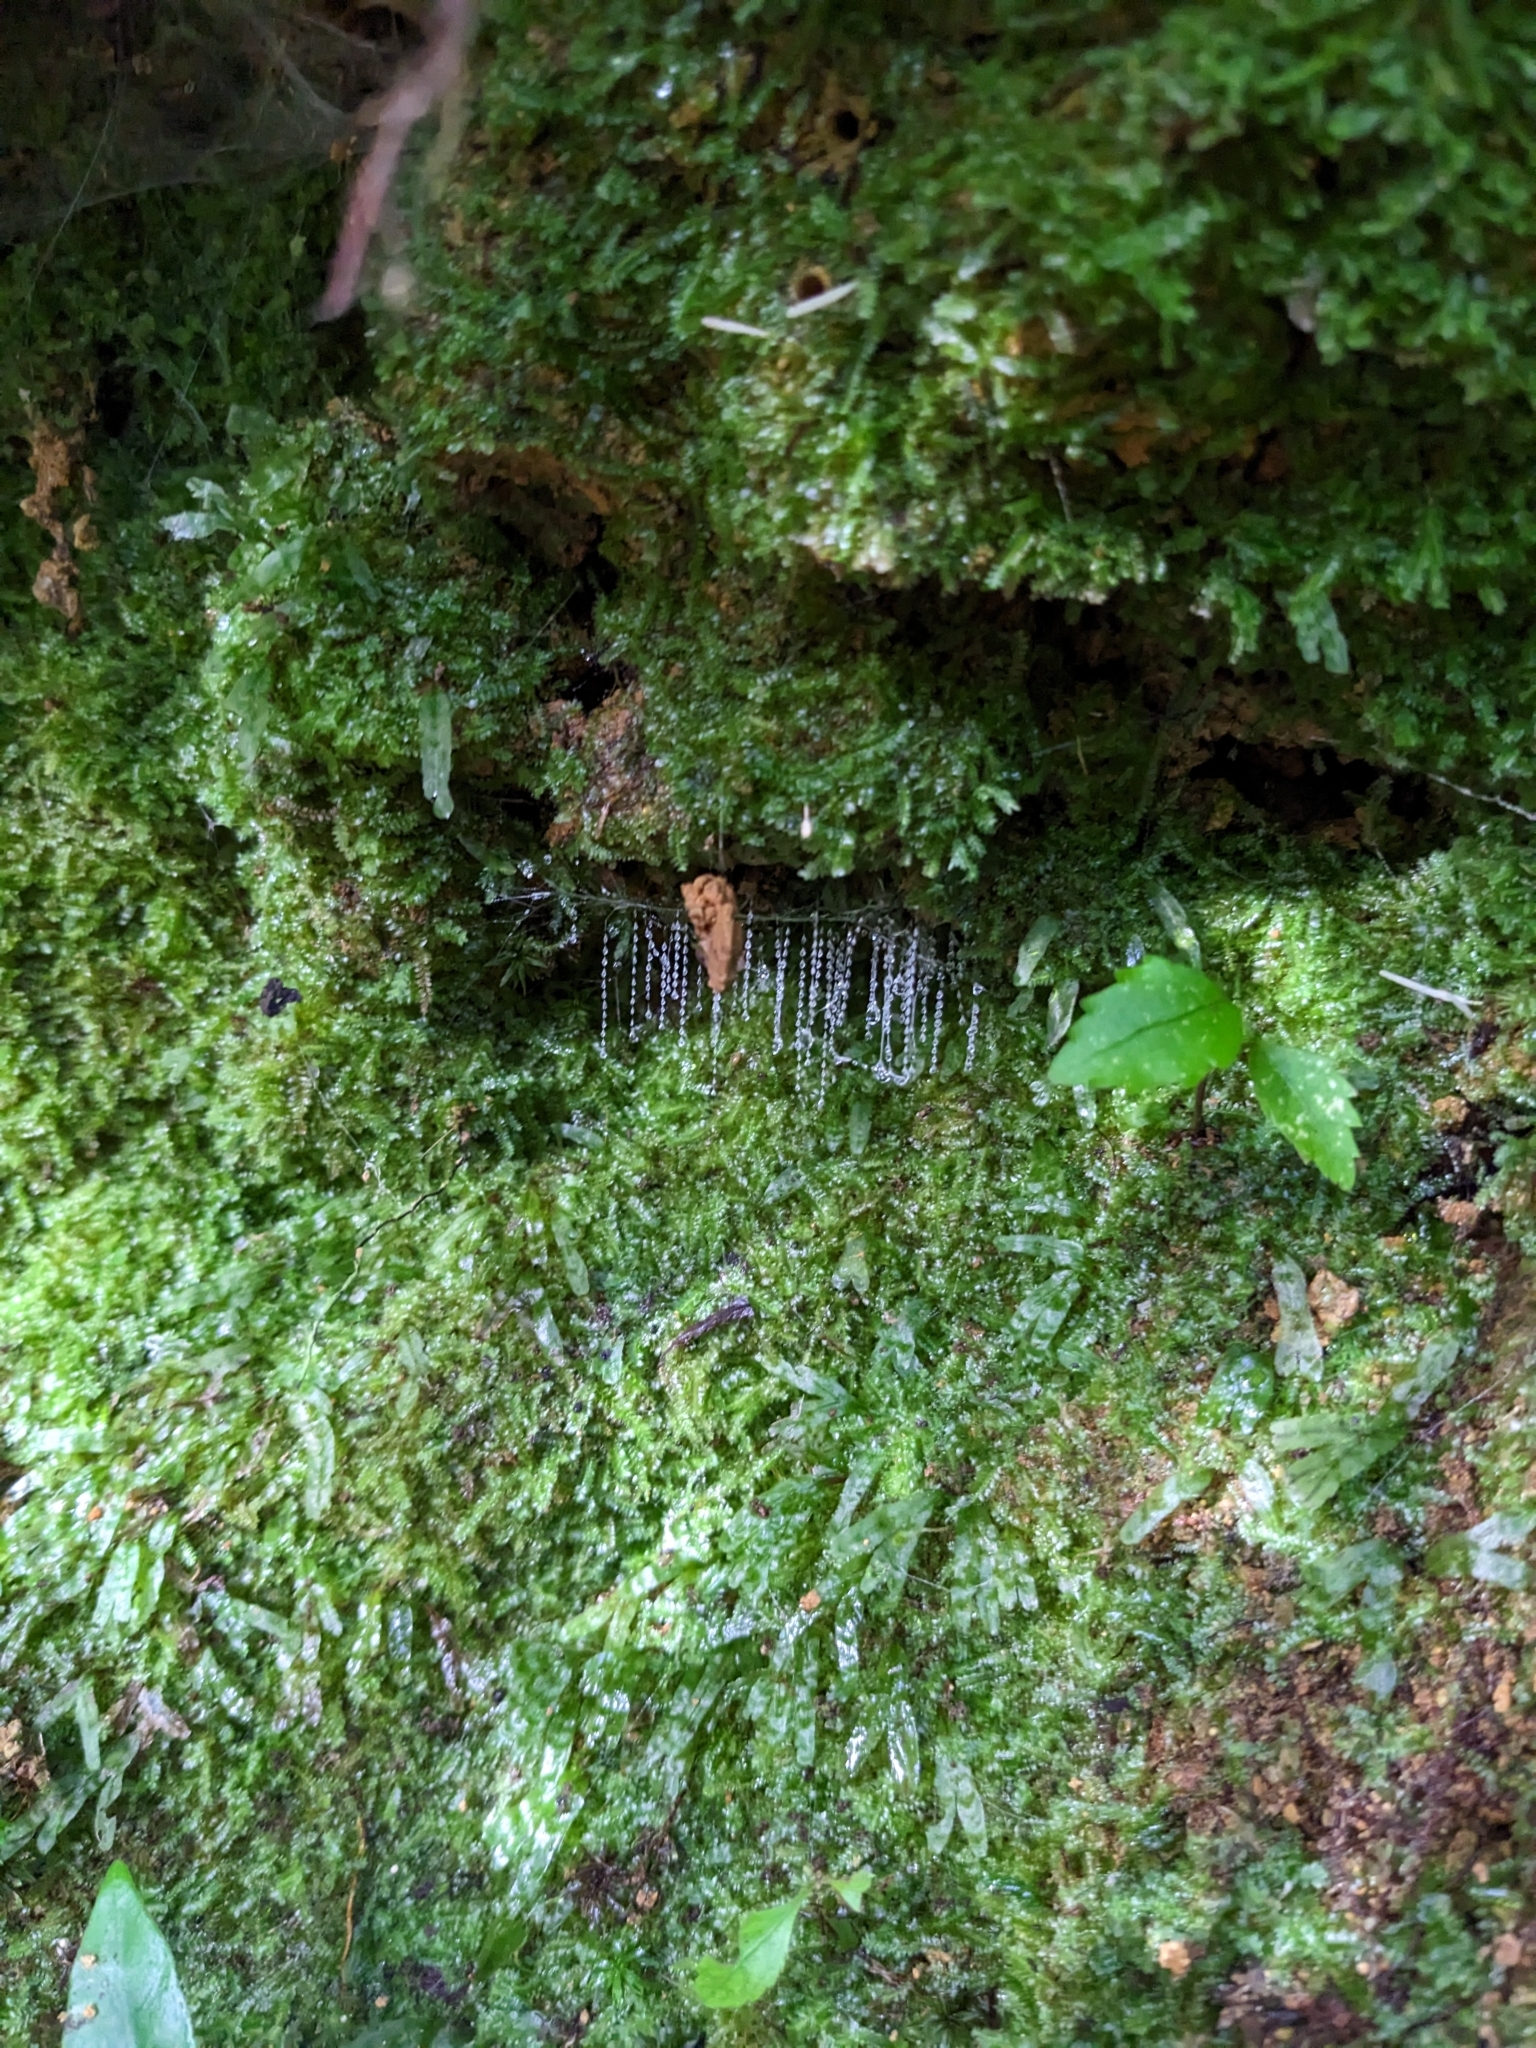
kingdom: Animalia
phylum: Arthropoda
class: Insecta
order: Diptera
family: Keroplatidae
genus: Arachnocampa
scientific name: Arachnocampa luminosa
